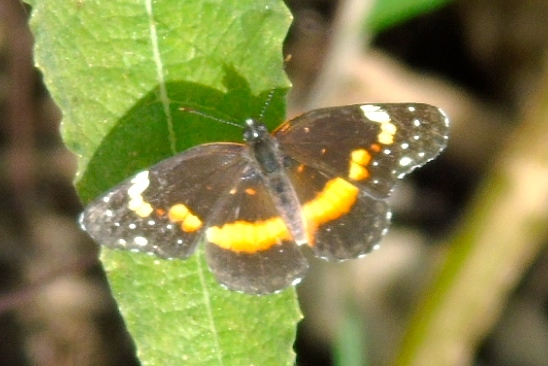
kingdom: Animalia
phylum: Arthropoda
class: Insecta
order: Lepidoptera
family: Nymphalidae
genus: Chlosyne
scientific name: Chlosyne lacinia
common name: Bordered patch
